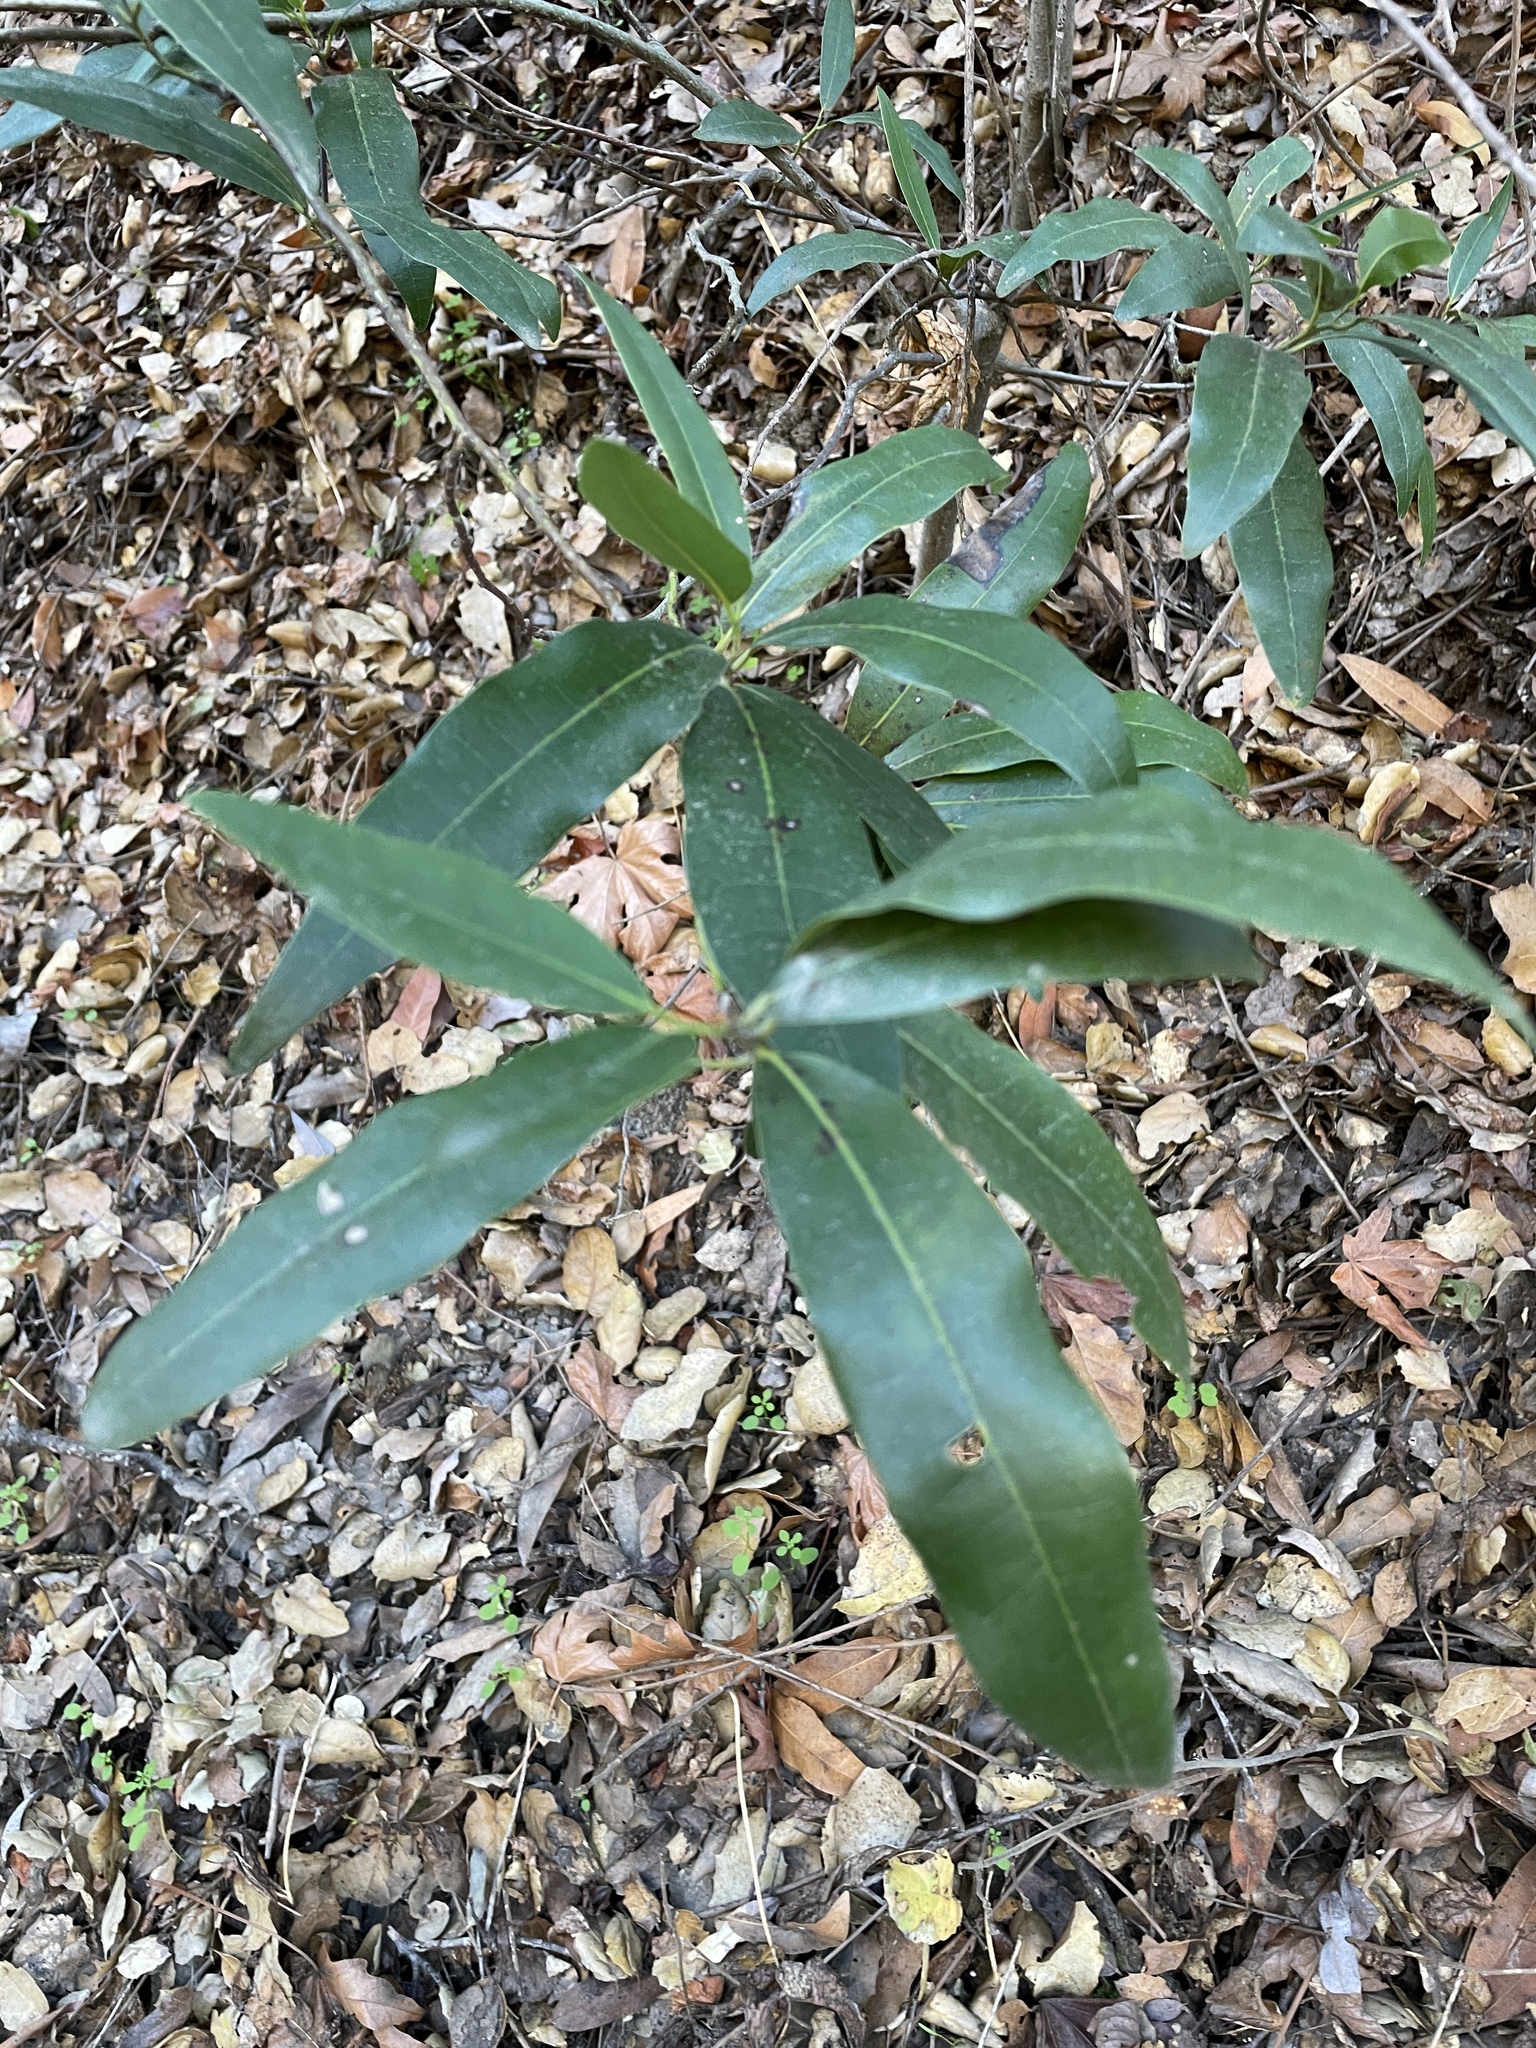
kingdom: Plantae
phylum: Tracheophyta
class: Magnoliopsida
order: Laurales
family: Lauraceae
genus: Umbellularia
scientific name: Umbellularia californica
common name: California bay
